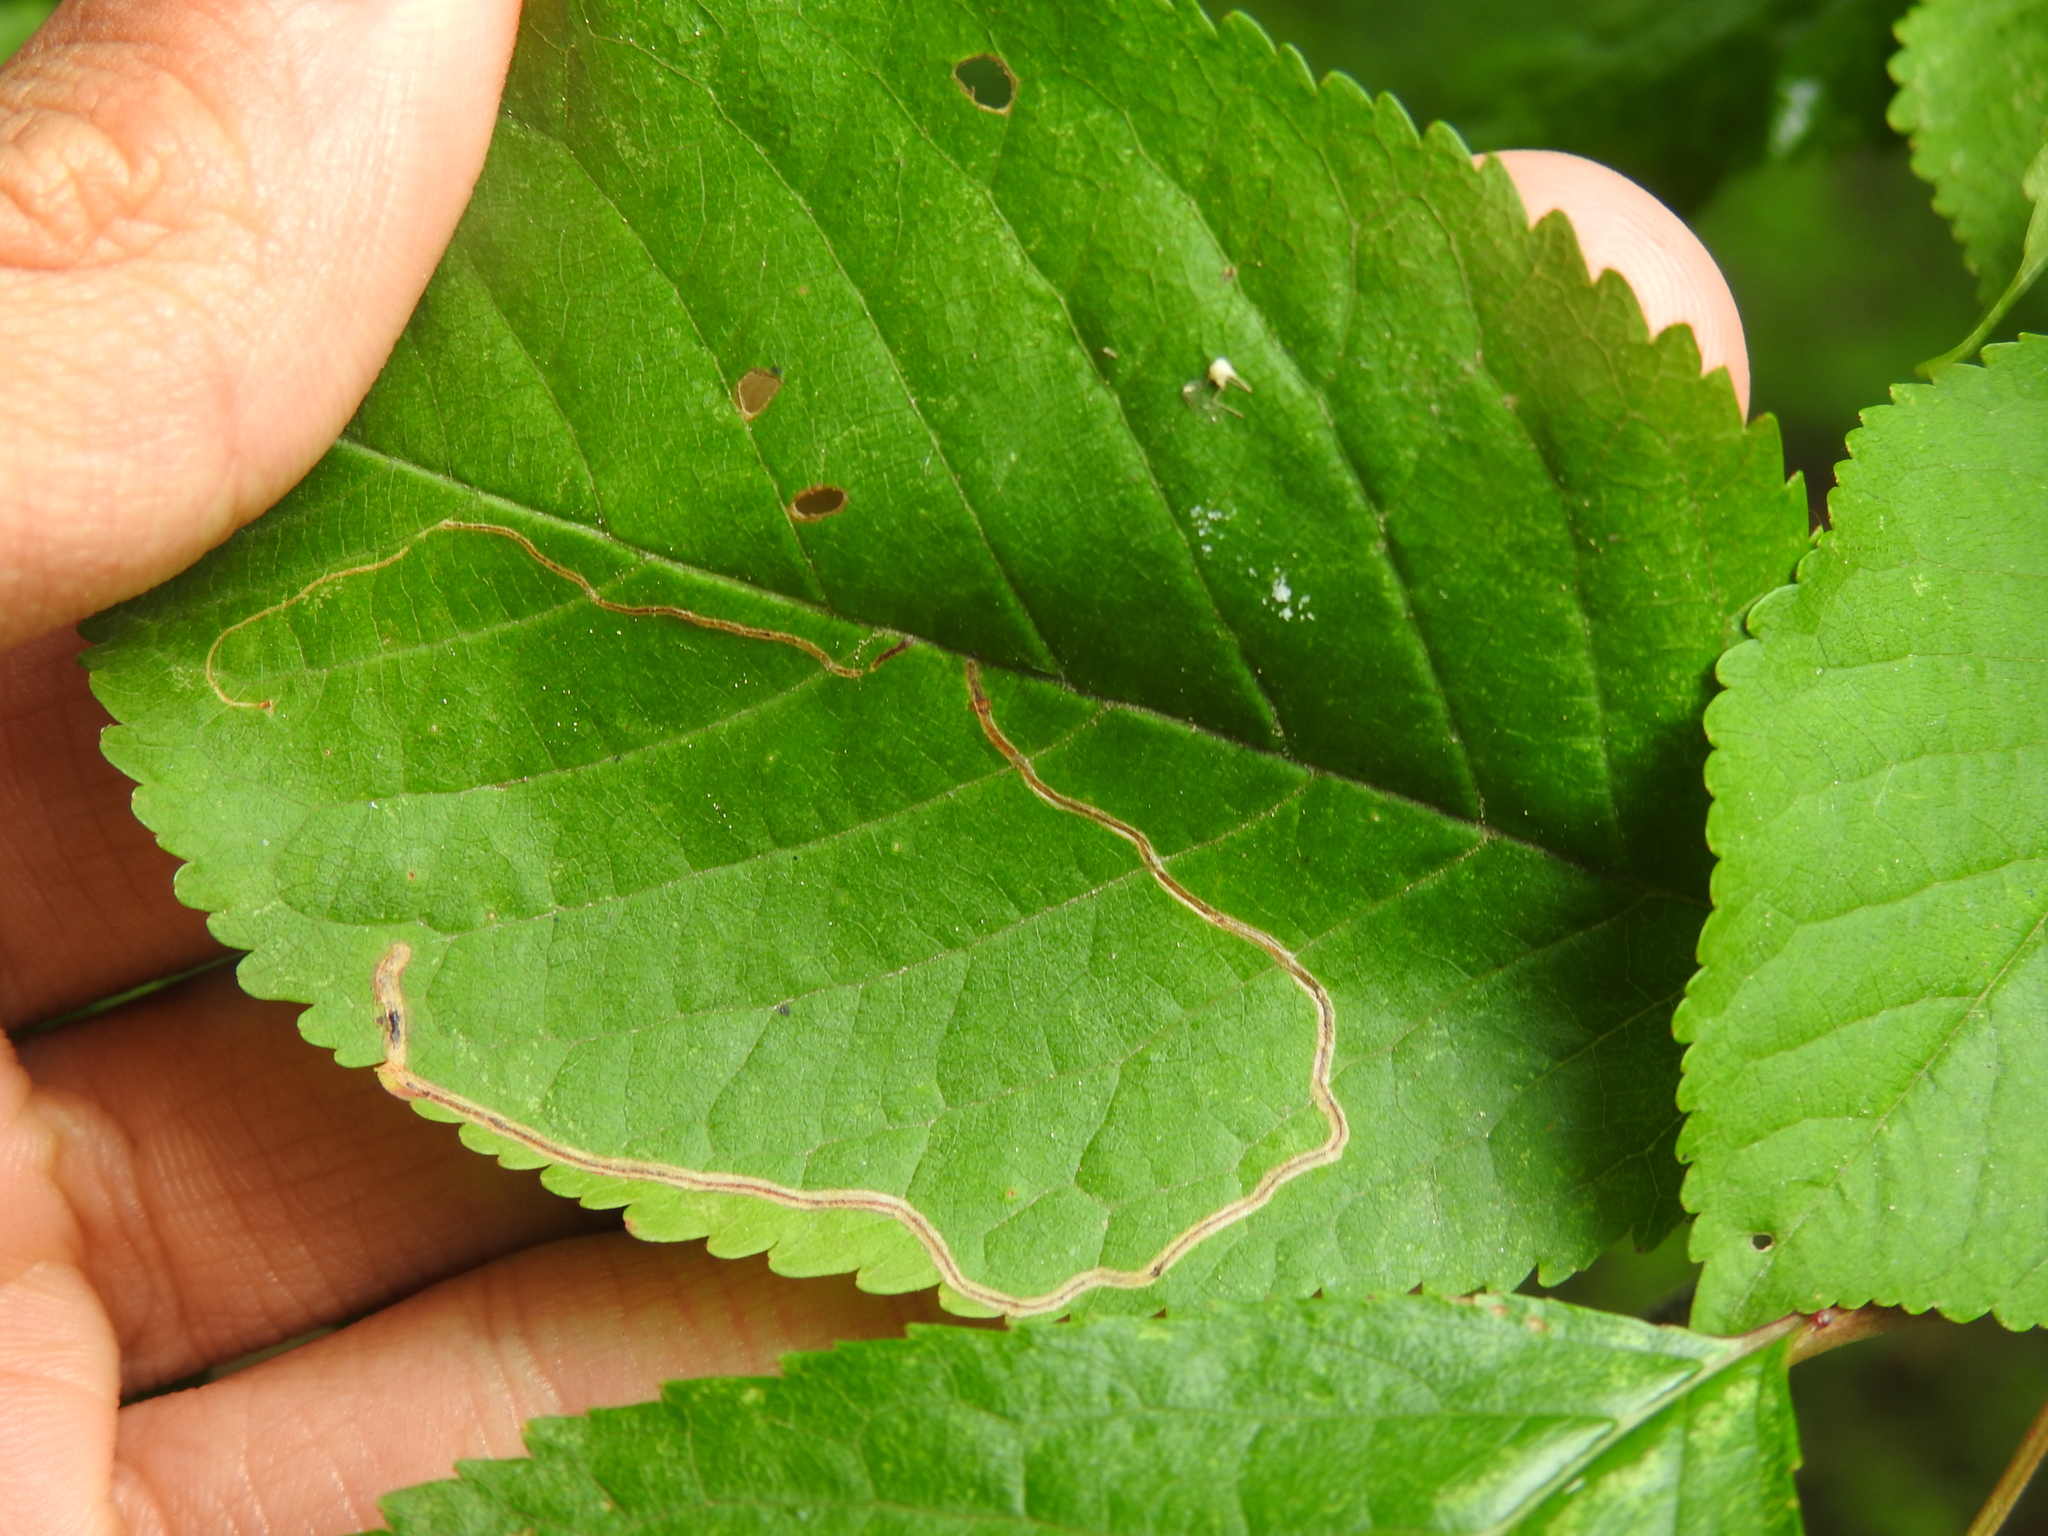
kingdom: Animalia
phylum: Arthropoda
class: Insecta
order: Lepidoptera
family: Lyonetiidae
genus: Lyonetia
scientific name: Lyonetia clerkella
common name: Apple leaf miner
